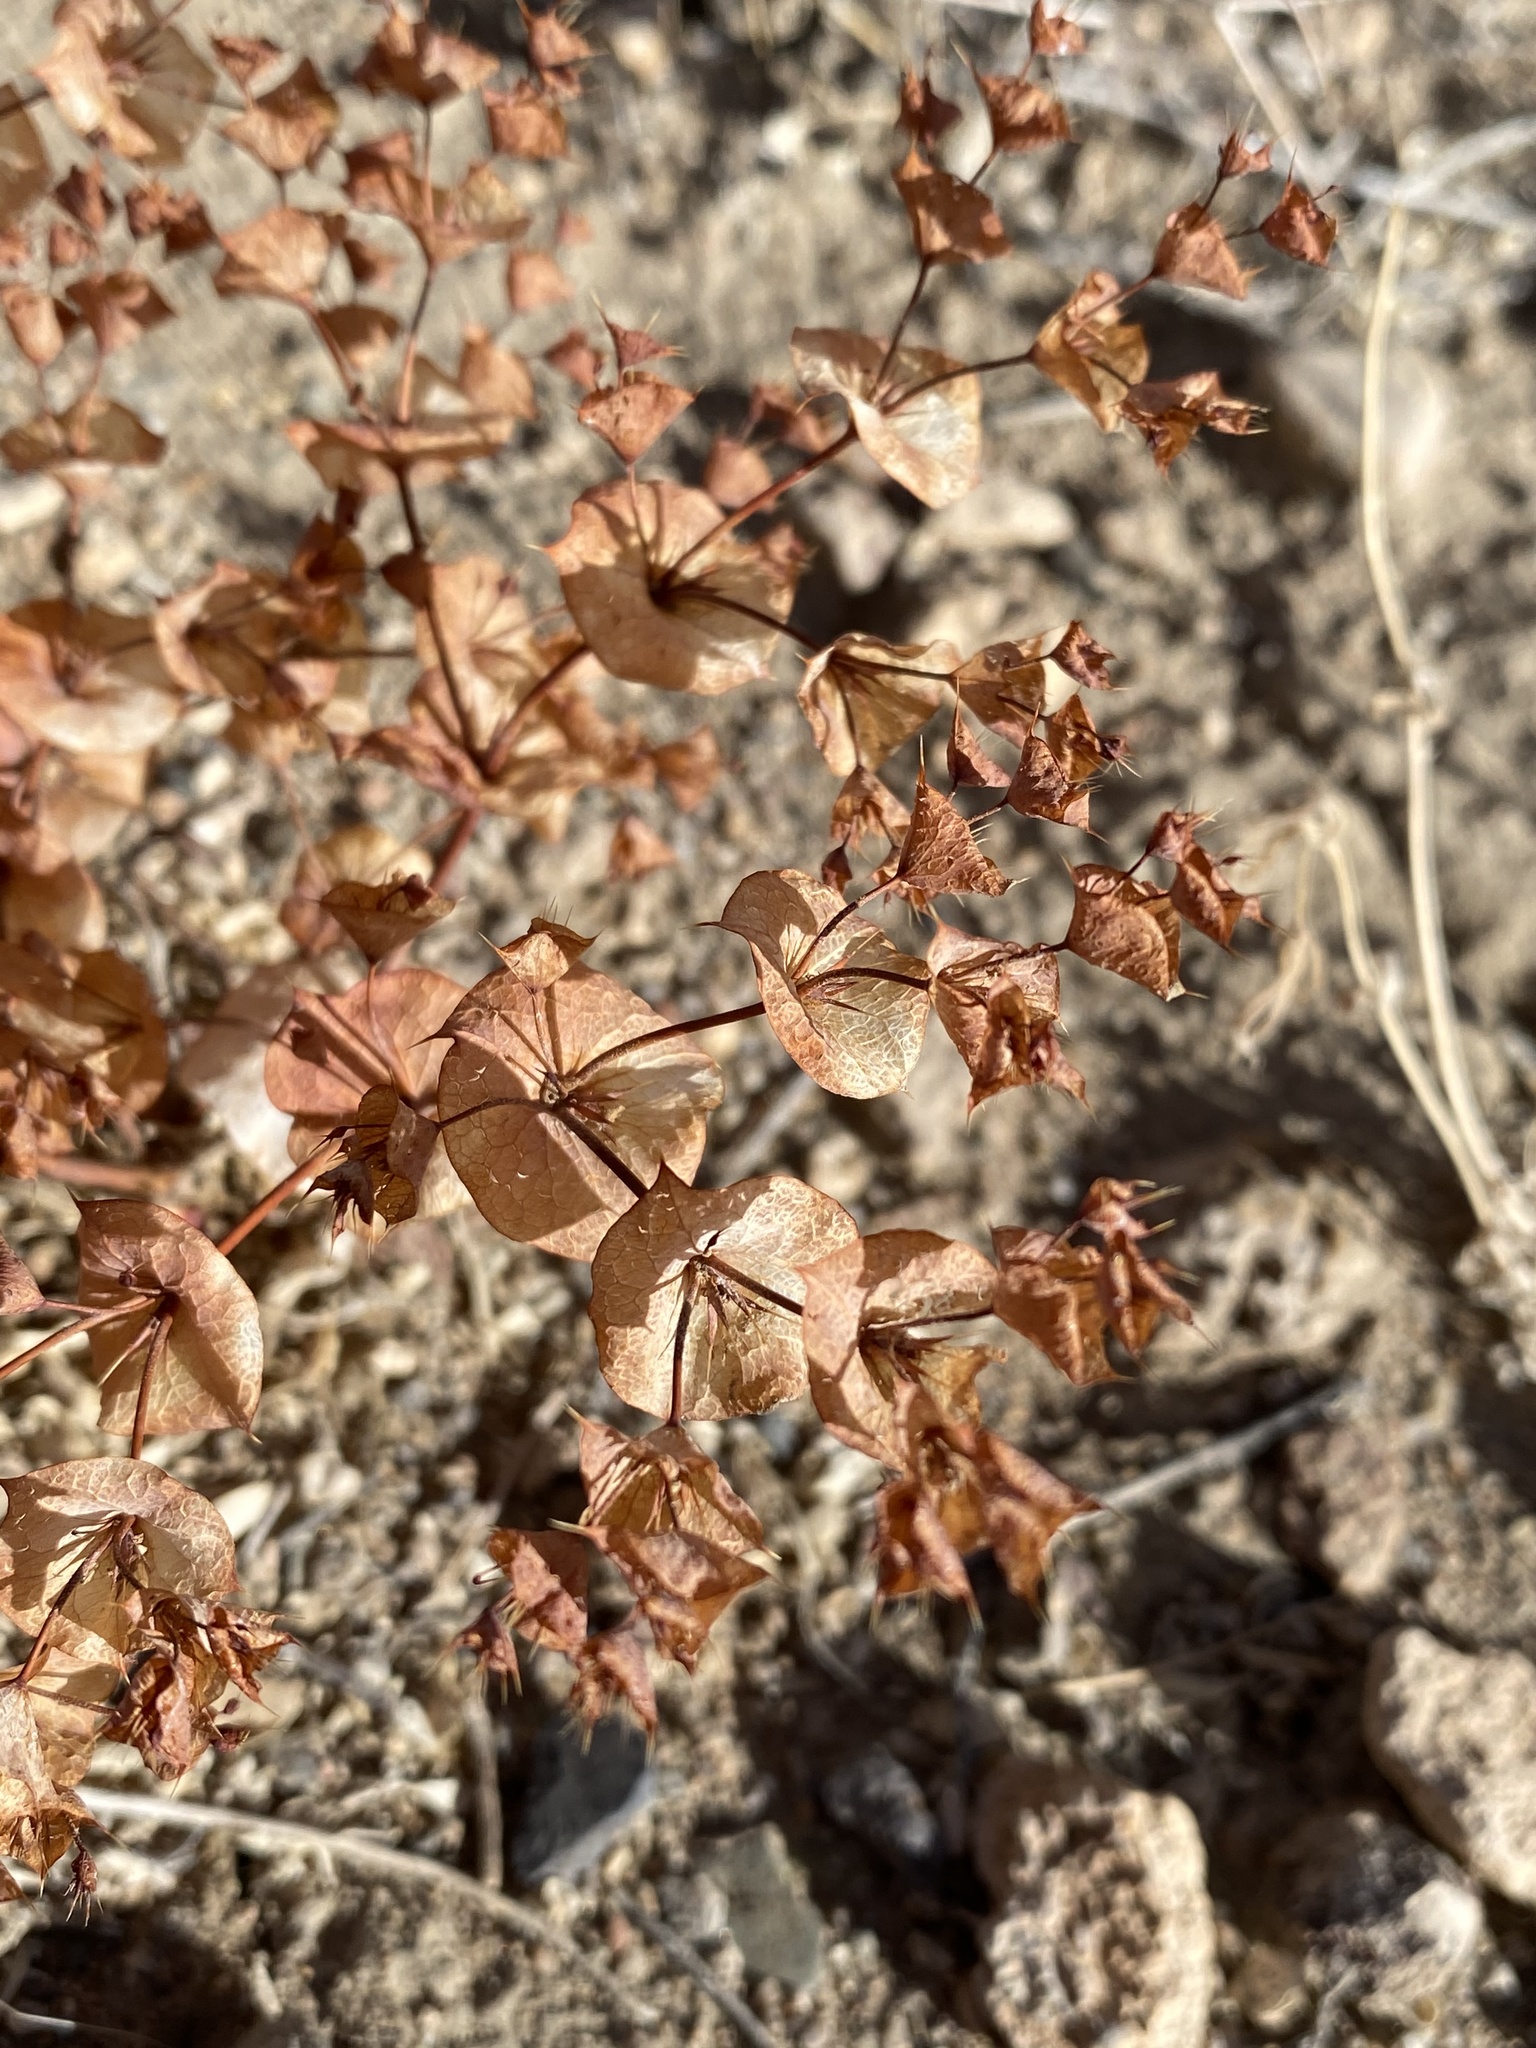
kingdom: Plantae
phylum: Tracheophyta
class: Magnoliopsida
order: Caryophyllales
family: Polygonaceae
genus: Oxytheca
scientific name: Oxytheca perfoliata
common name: Round-leaf puncturebract
